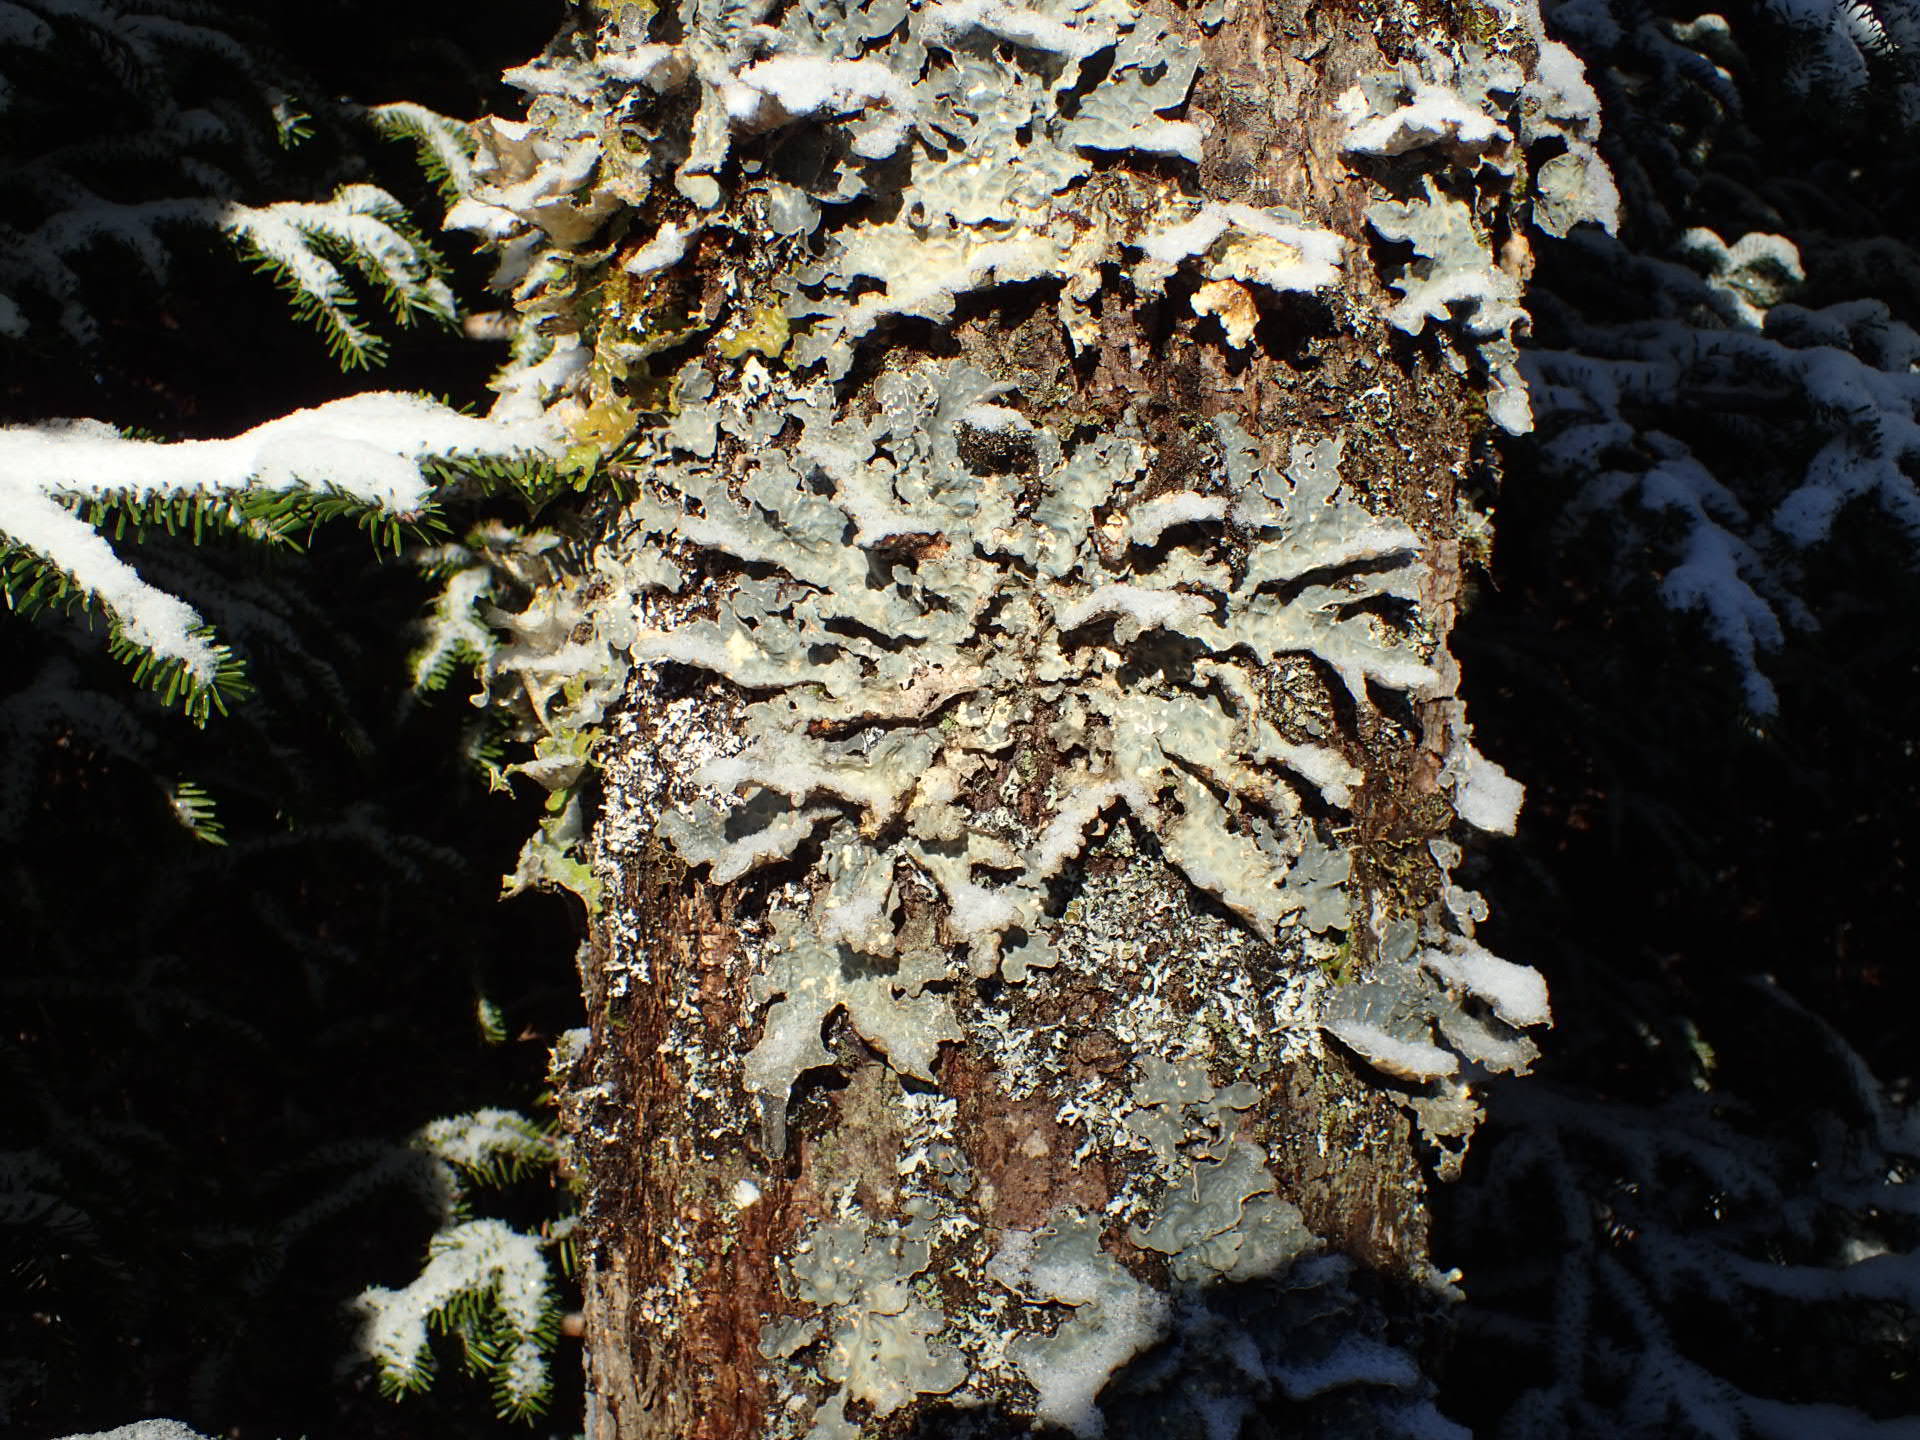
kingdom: Fungi
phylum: Ascomycota
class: Lecanoromycetes
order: Peltigerales
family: Lobariaceae
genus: Lobarina
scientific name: Lobarina scrobiculata
